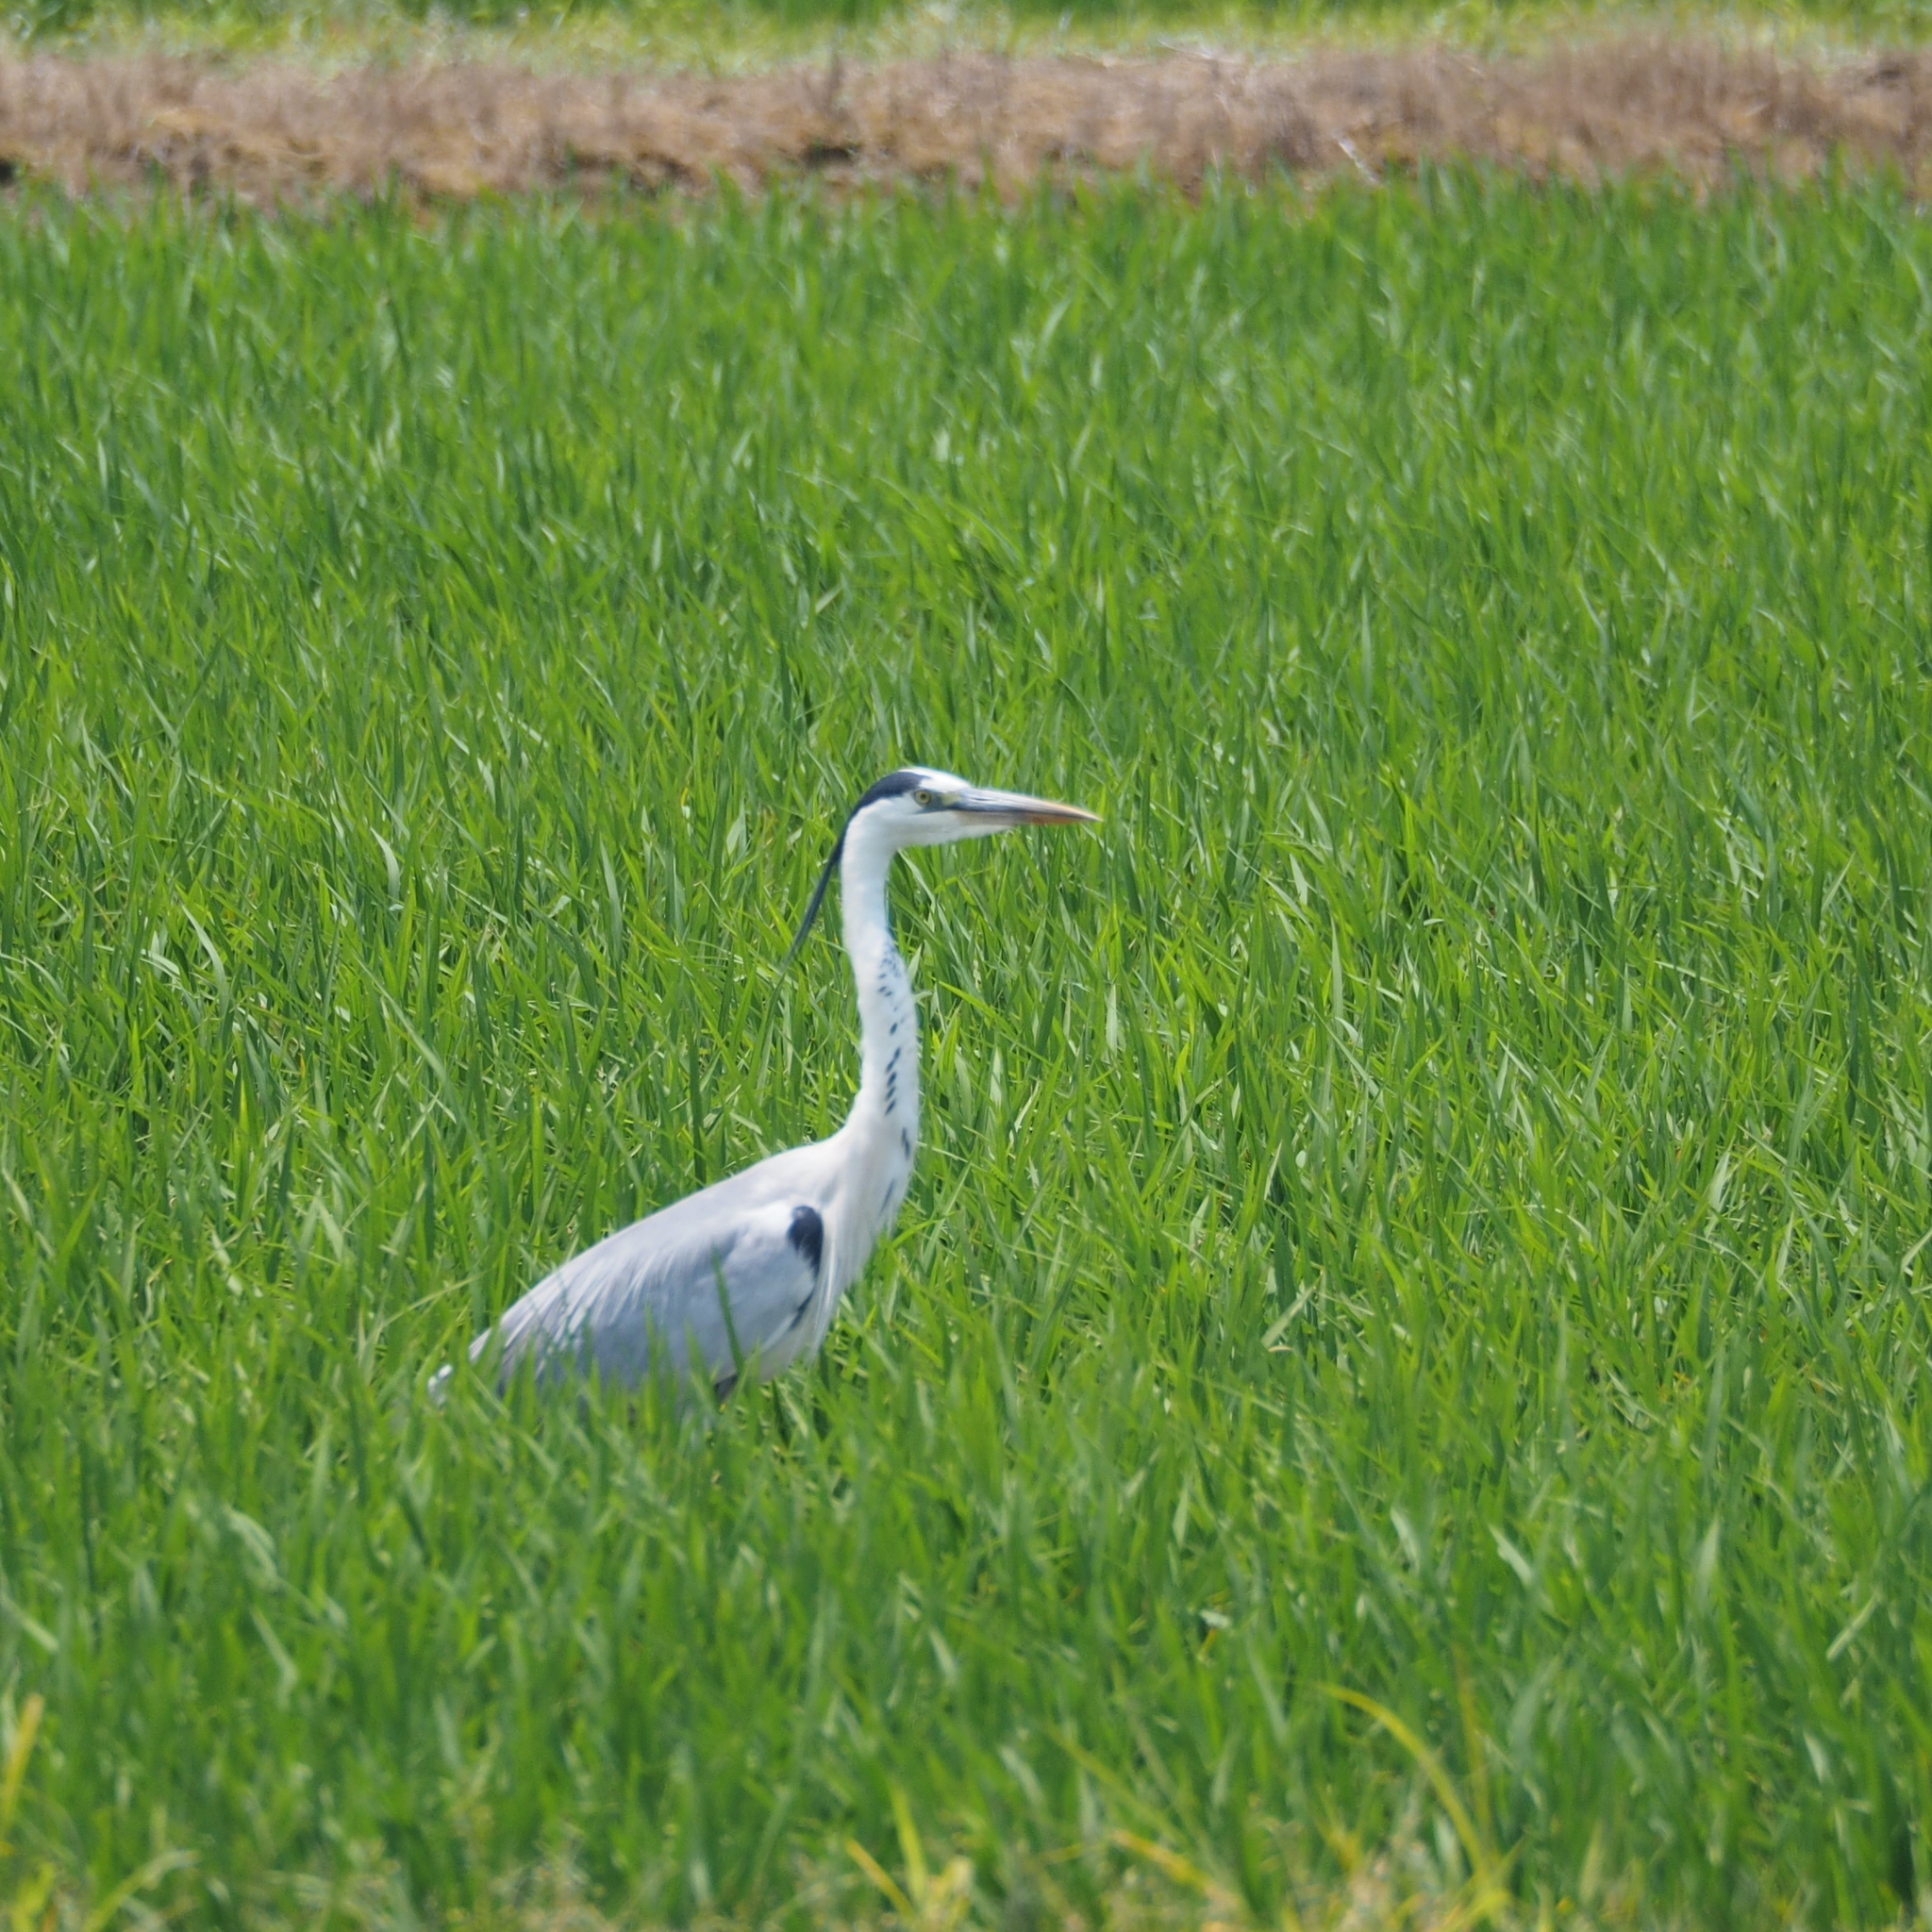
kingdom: Animalia
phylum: Chordata
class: Aves
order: Pelecaniformes
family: Ardeidae
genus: Ardea
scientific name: Ardea cinerea
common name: Grey heron
